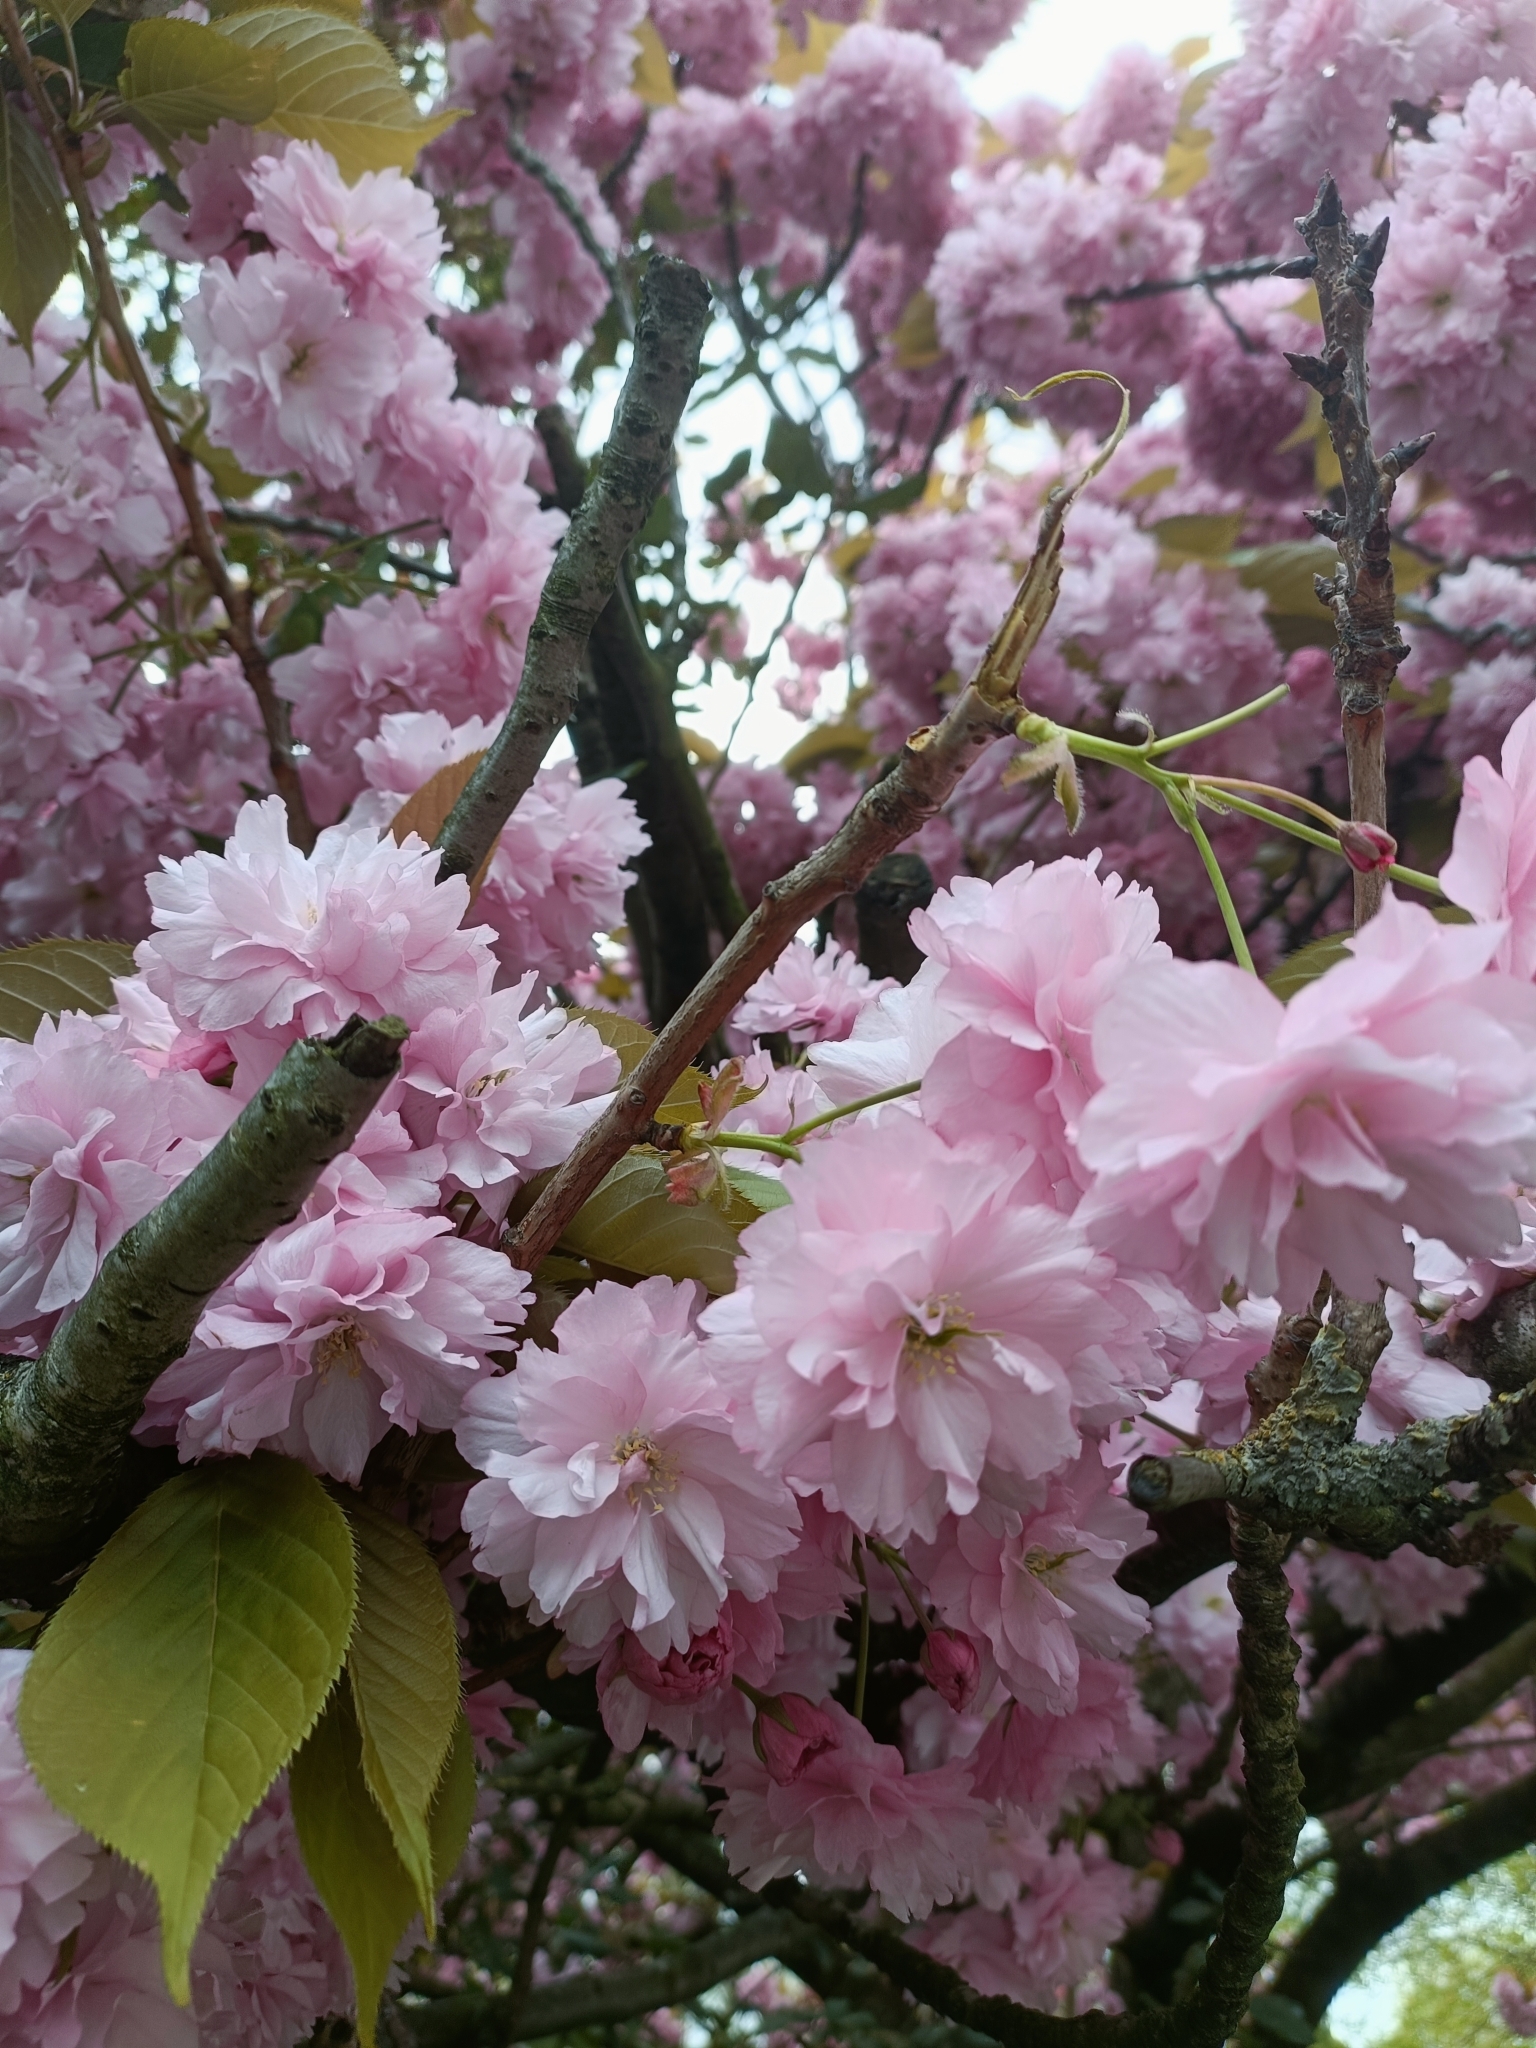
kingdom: Plantae
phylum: Tracheophyta
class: Magnoliopsida
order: Rosales
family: Rosaceae
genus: Prunus
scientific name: Prunus serrulata
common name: Japanese cherry
